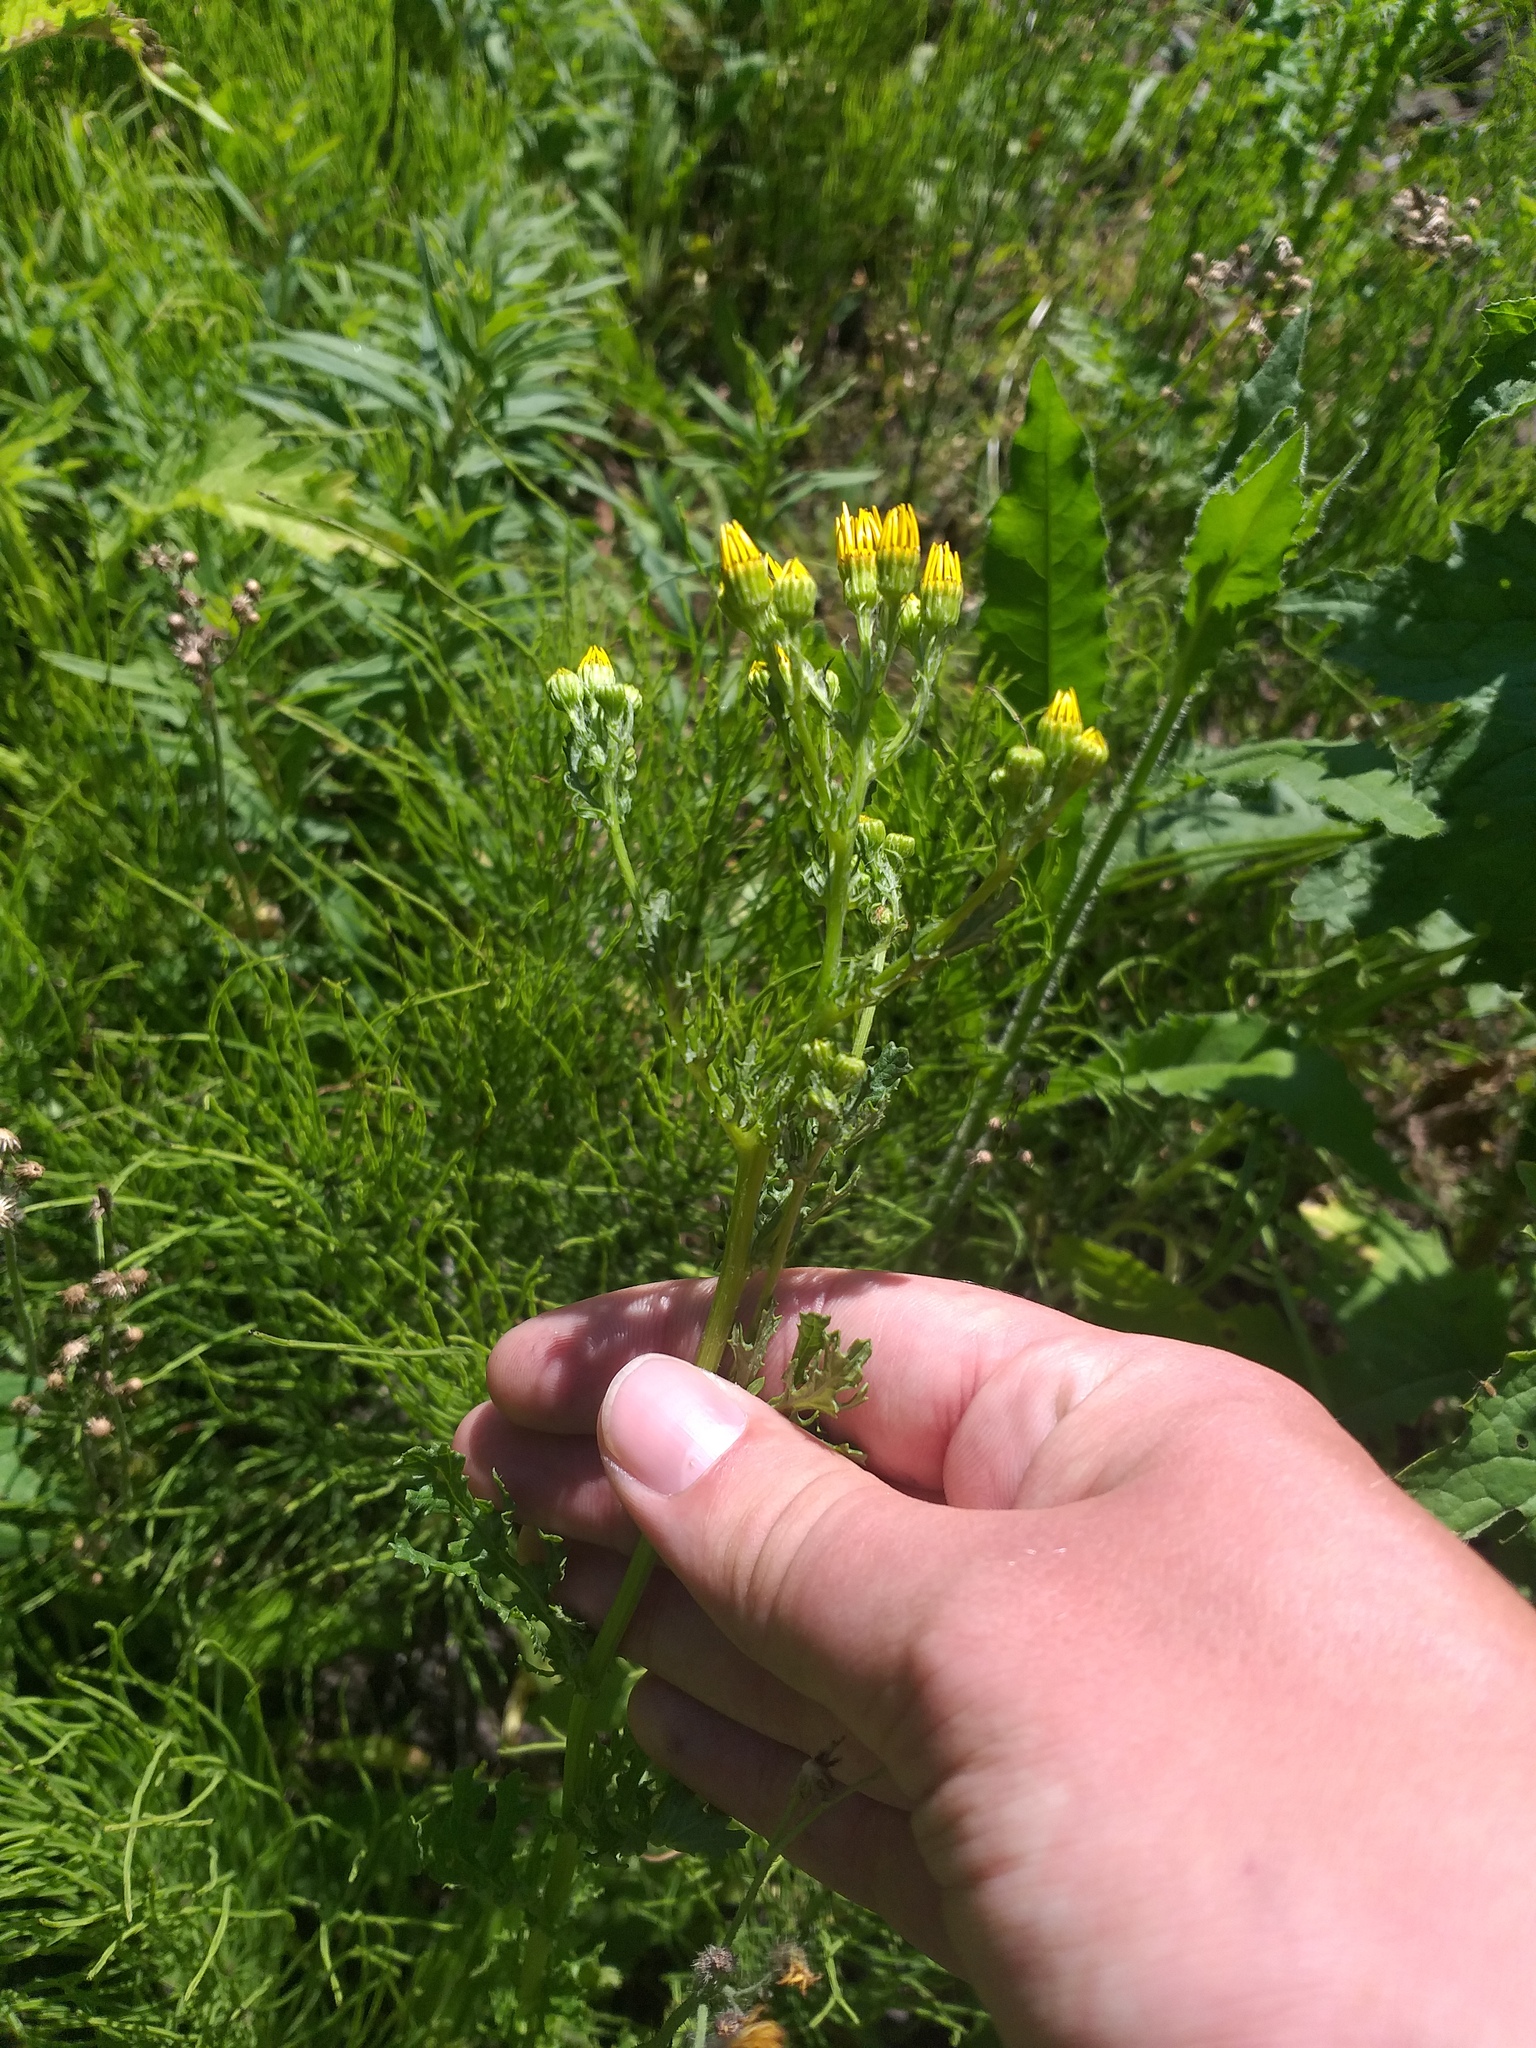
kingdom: Plantae
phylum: Tracheophyta
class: Magnoliopsida
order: Asterales
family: Asteraceae
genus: Jacobaea
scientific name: Jacobaea vulgaris
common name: Stinking willie
